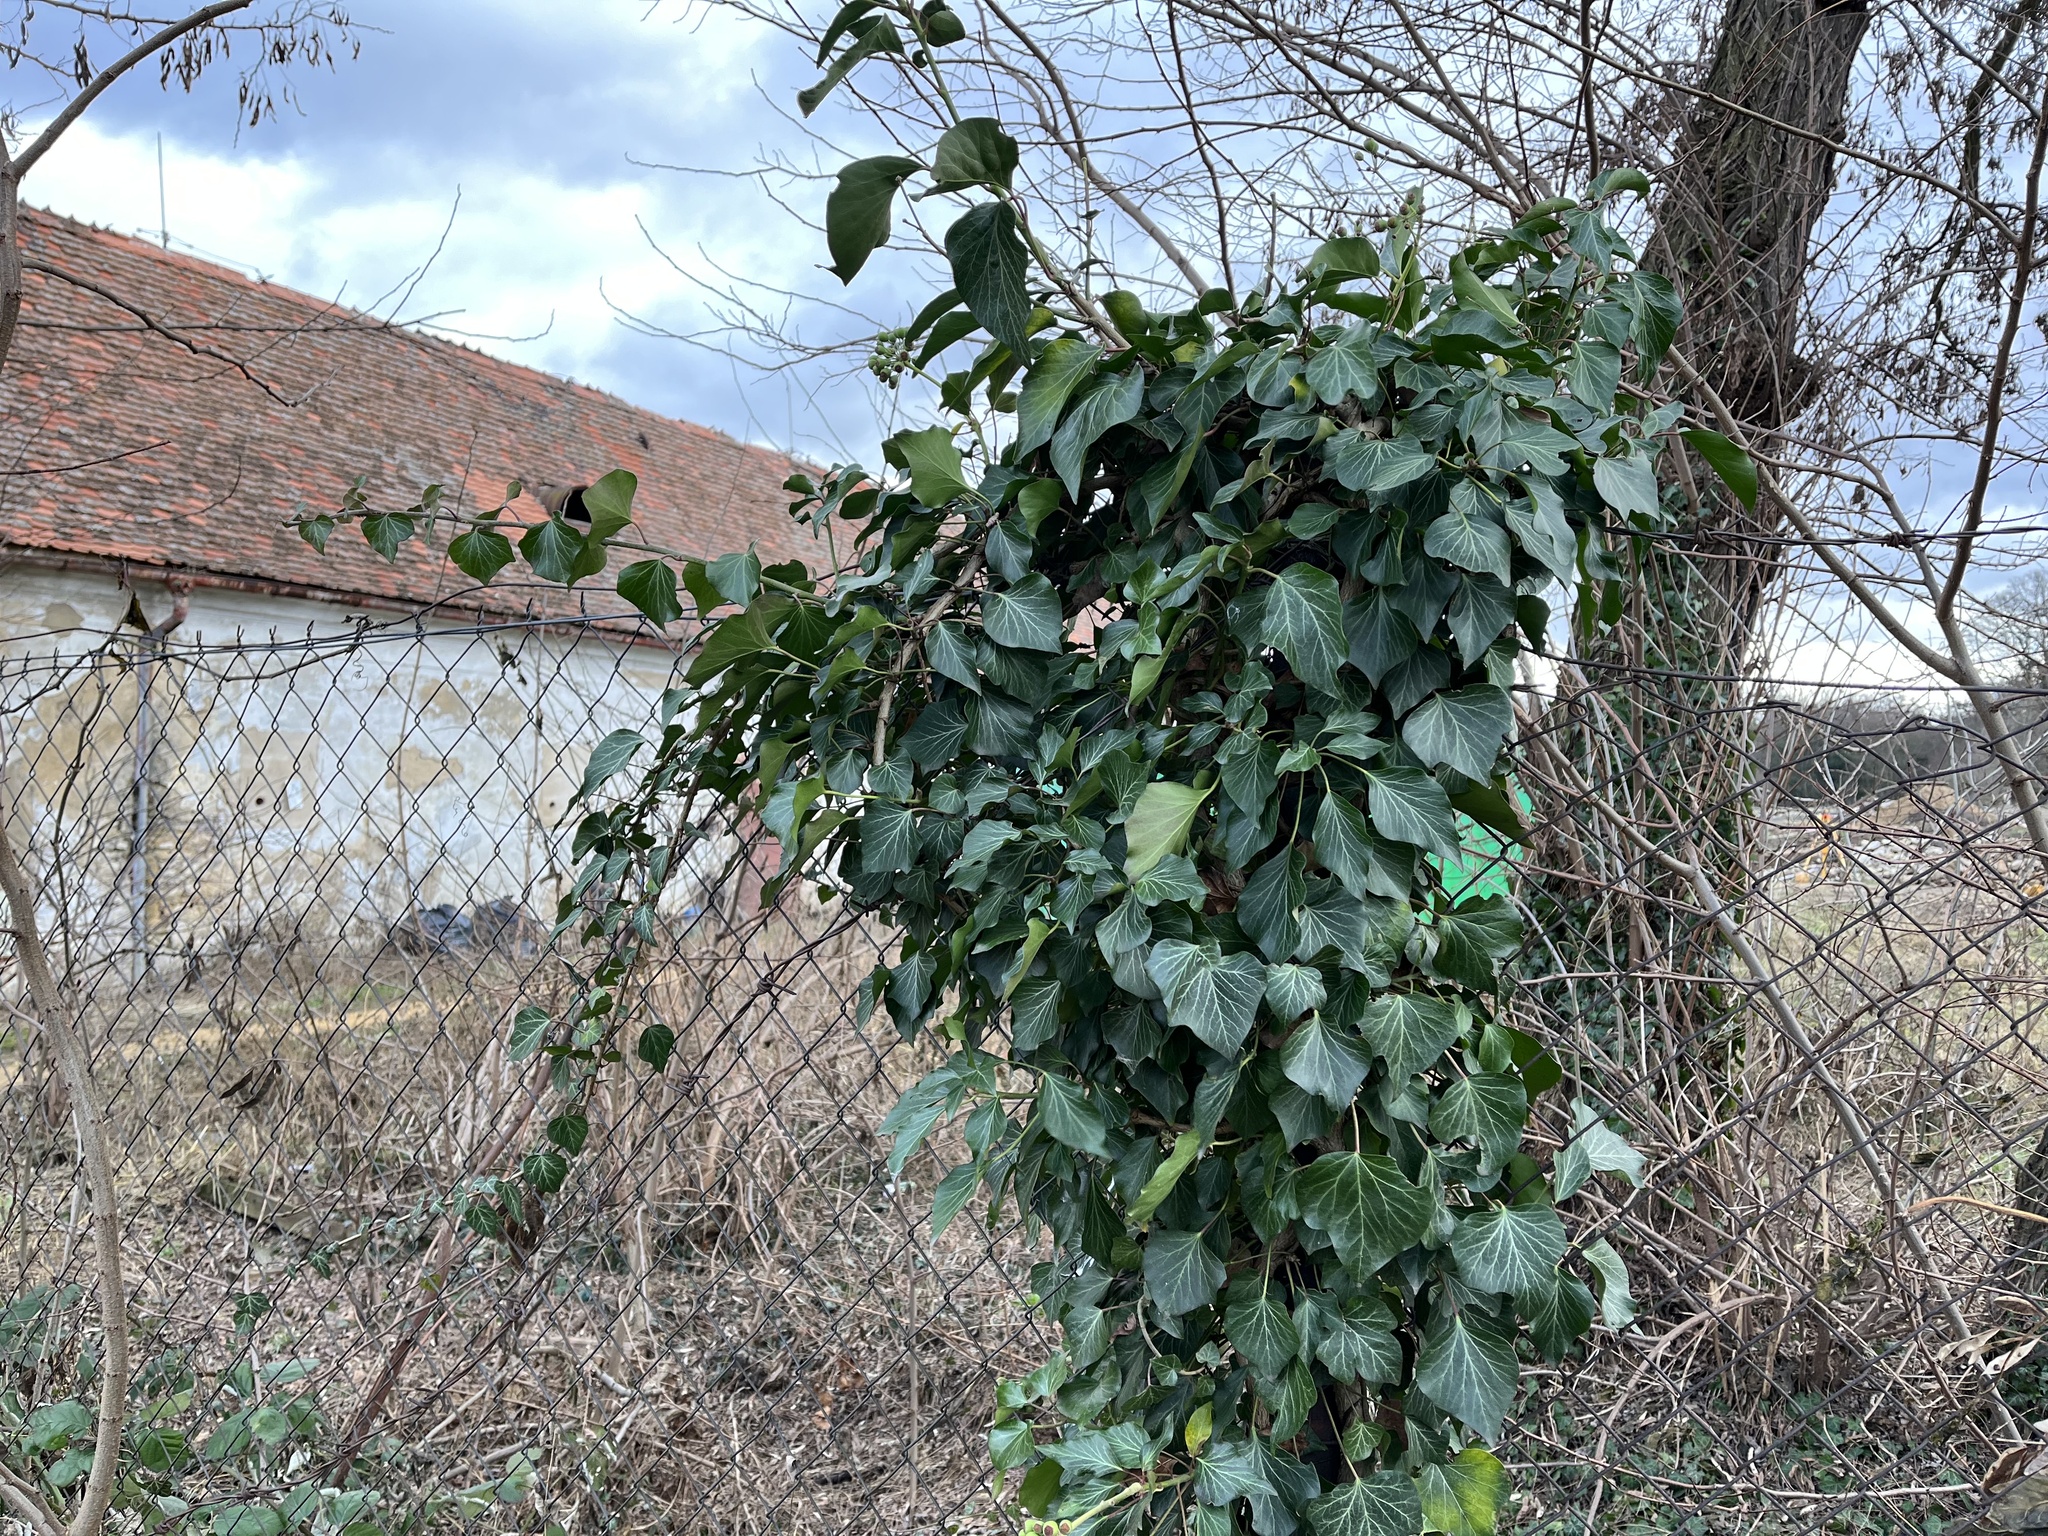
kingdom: Plantae
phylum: Tracheophyta
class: Magnoliopsida
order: Apiales
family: Araliaceae
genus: Hedera
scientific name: Hedera helix
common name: Ivy
